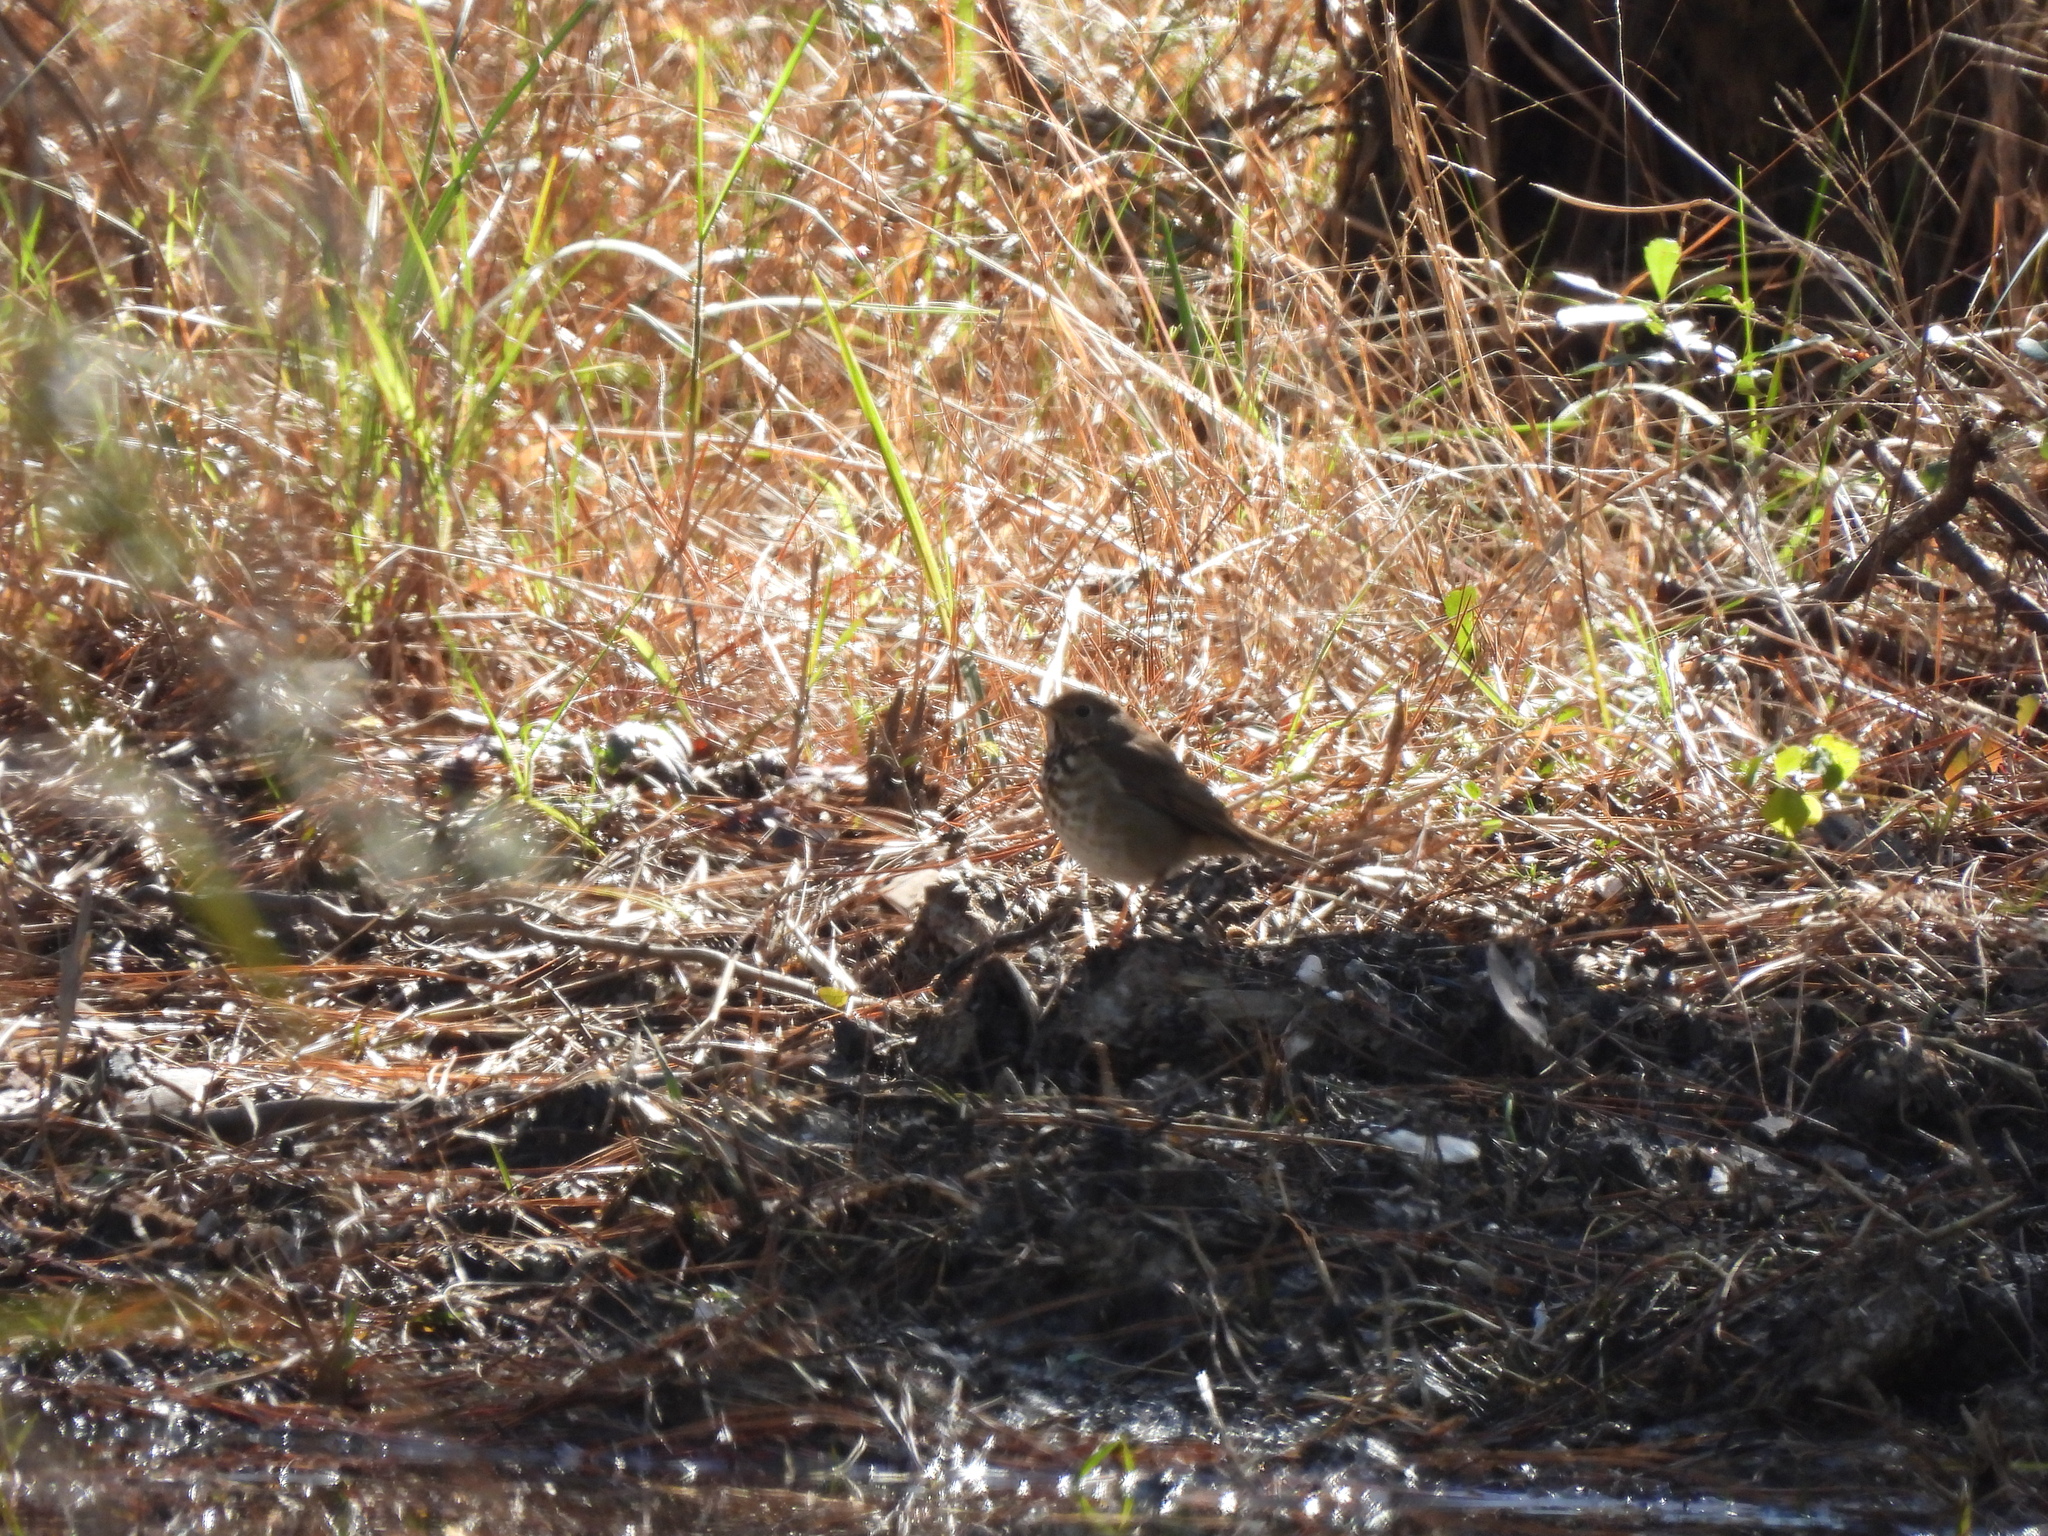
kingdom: Animalia
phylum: Chordata
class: Aves
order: Passeriformes
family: Turdidae
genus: Catharus
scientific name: Catharus guttatus
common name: Hermit thrush
